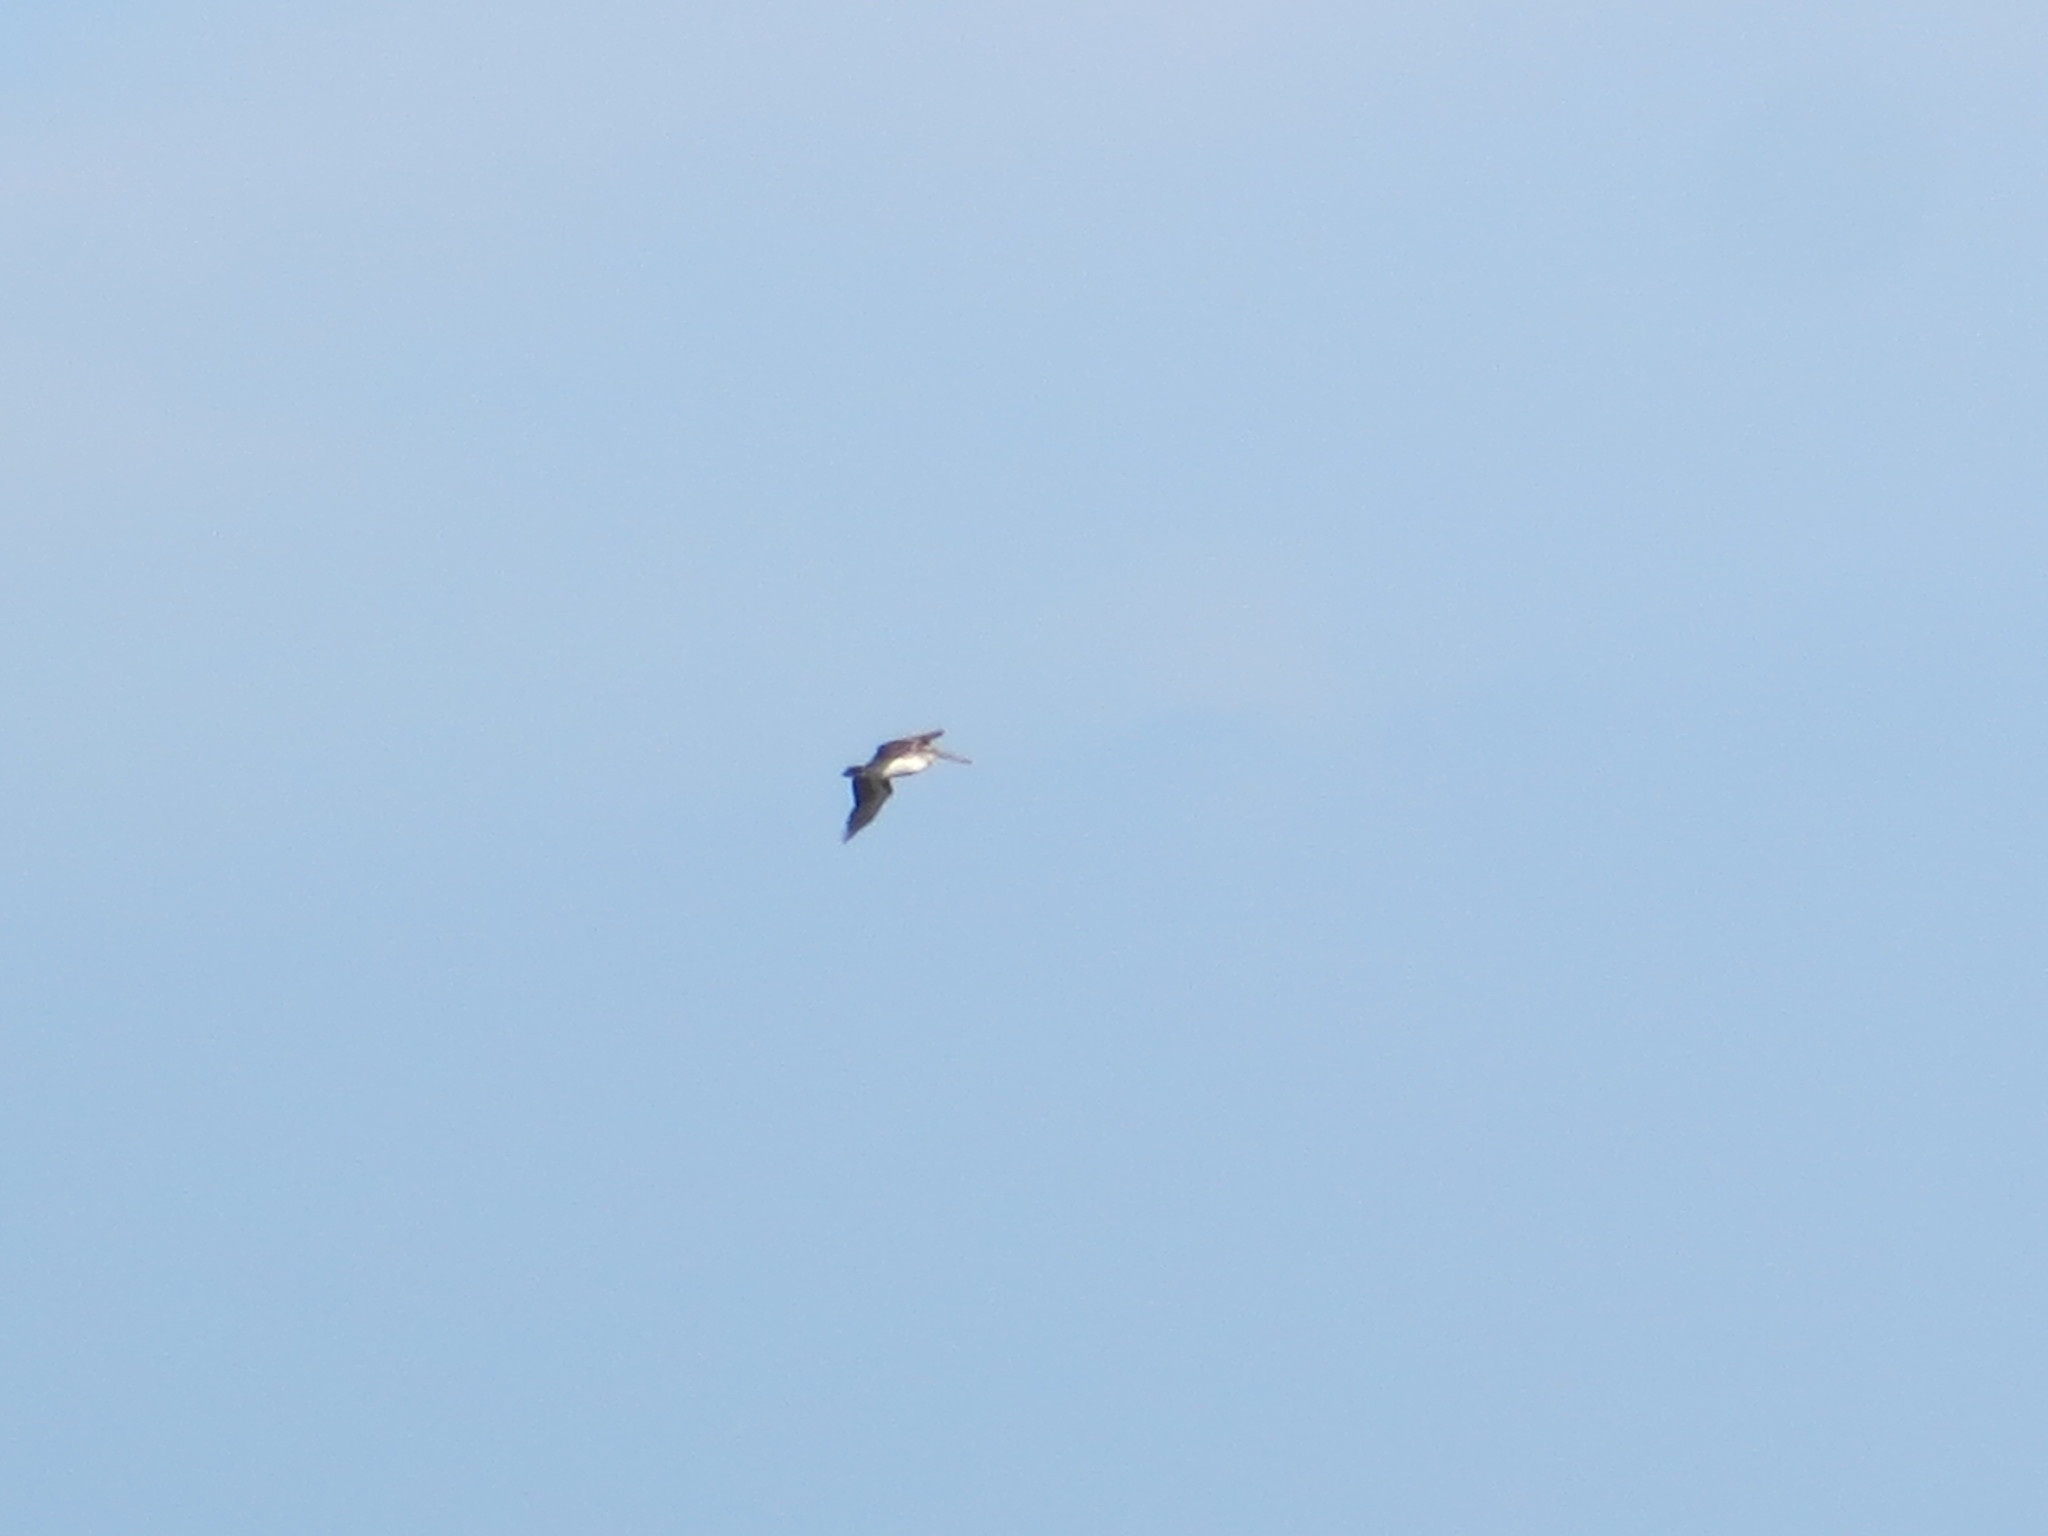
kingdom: Animalia
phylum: Chordata
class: Aves
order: Pelecaniformes
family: Pelecanidae
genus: Pelecanus
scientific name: Pelecanus occidentalis
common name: Brown pelican
